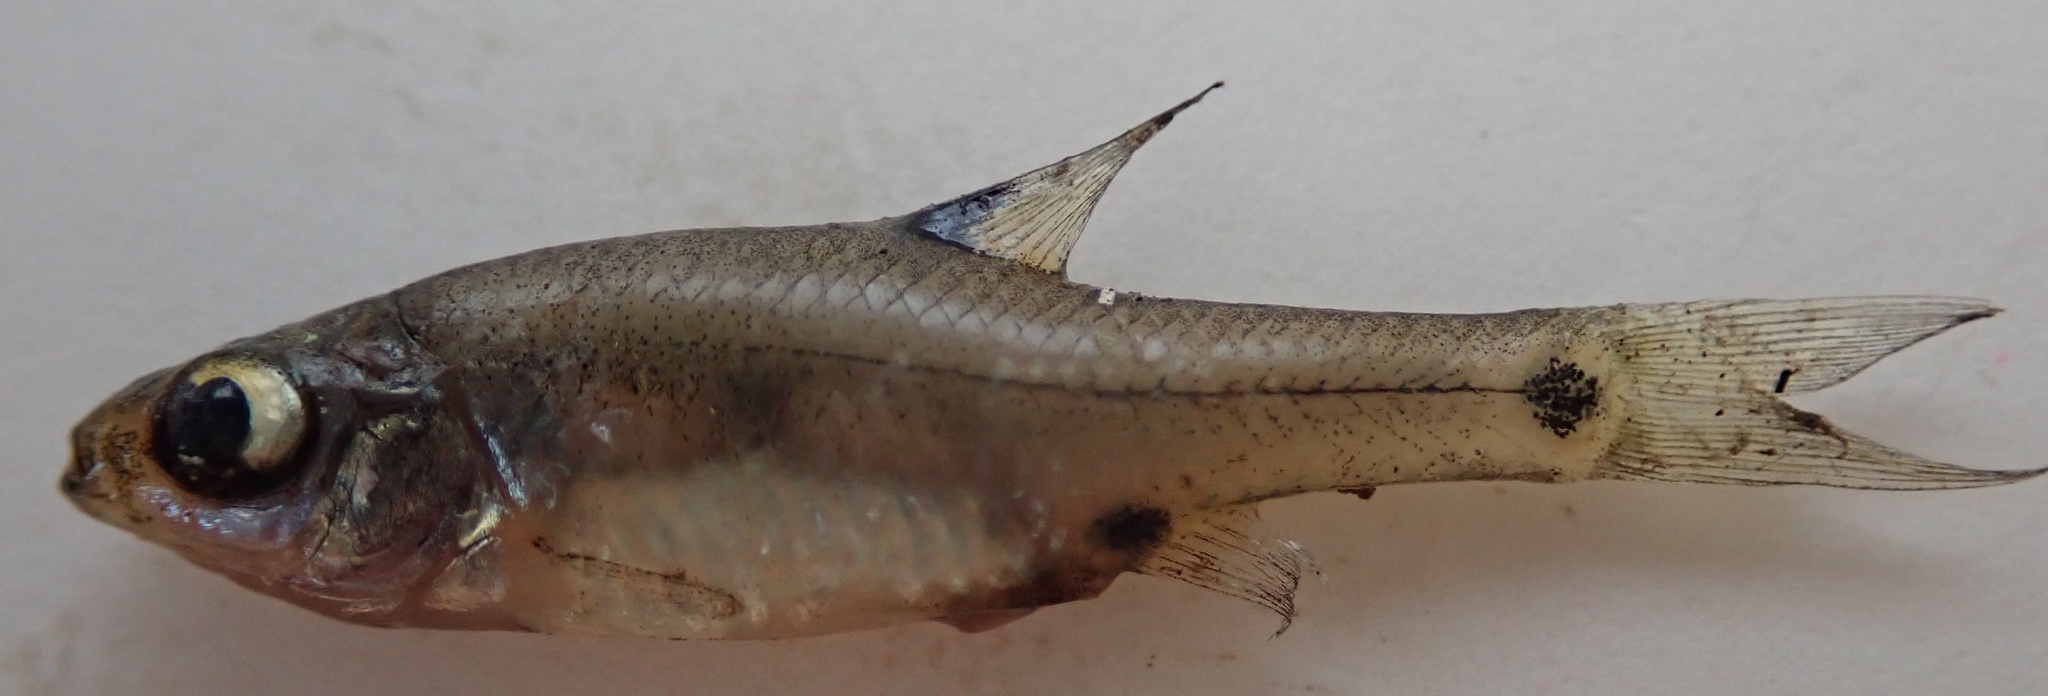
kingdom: Animalia
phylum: Chordata
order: Cypriniformes
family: Cyprinidae
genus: Enteromius
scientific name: Enteromius haasianus
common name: Sickle-fin barb
